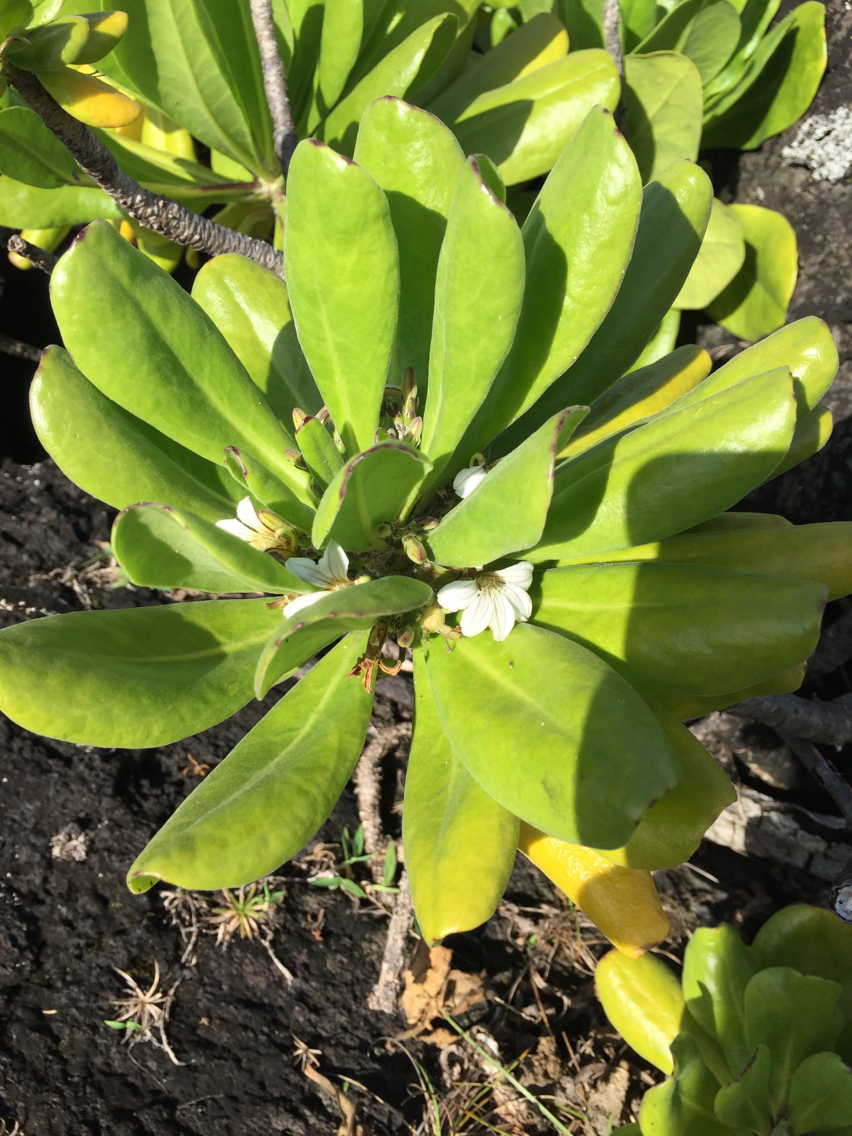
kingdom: Plantae
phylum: Tracheophyta
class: Magnoliopsida
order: Asterales
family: Goodeniaceae
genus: Scaevola
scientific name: Scaevola taccada
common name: Sea lettucetree
